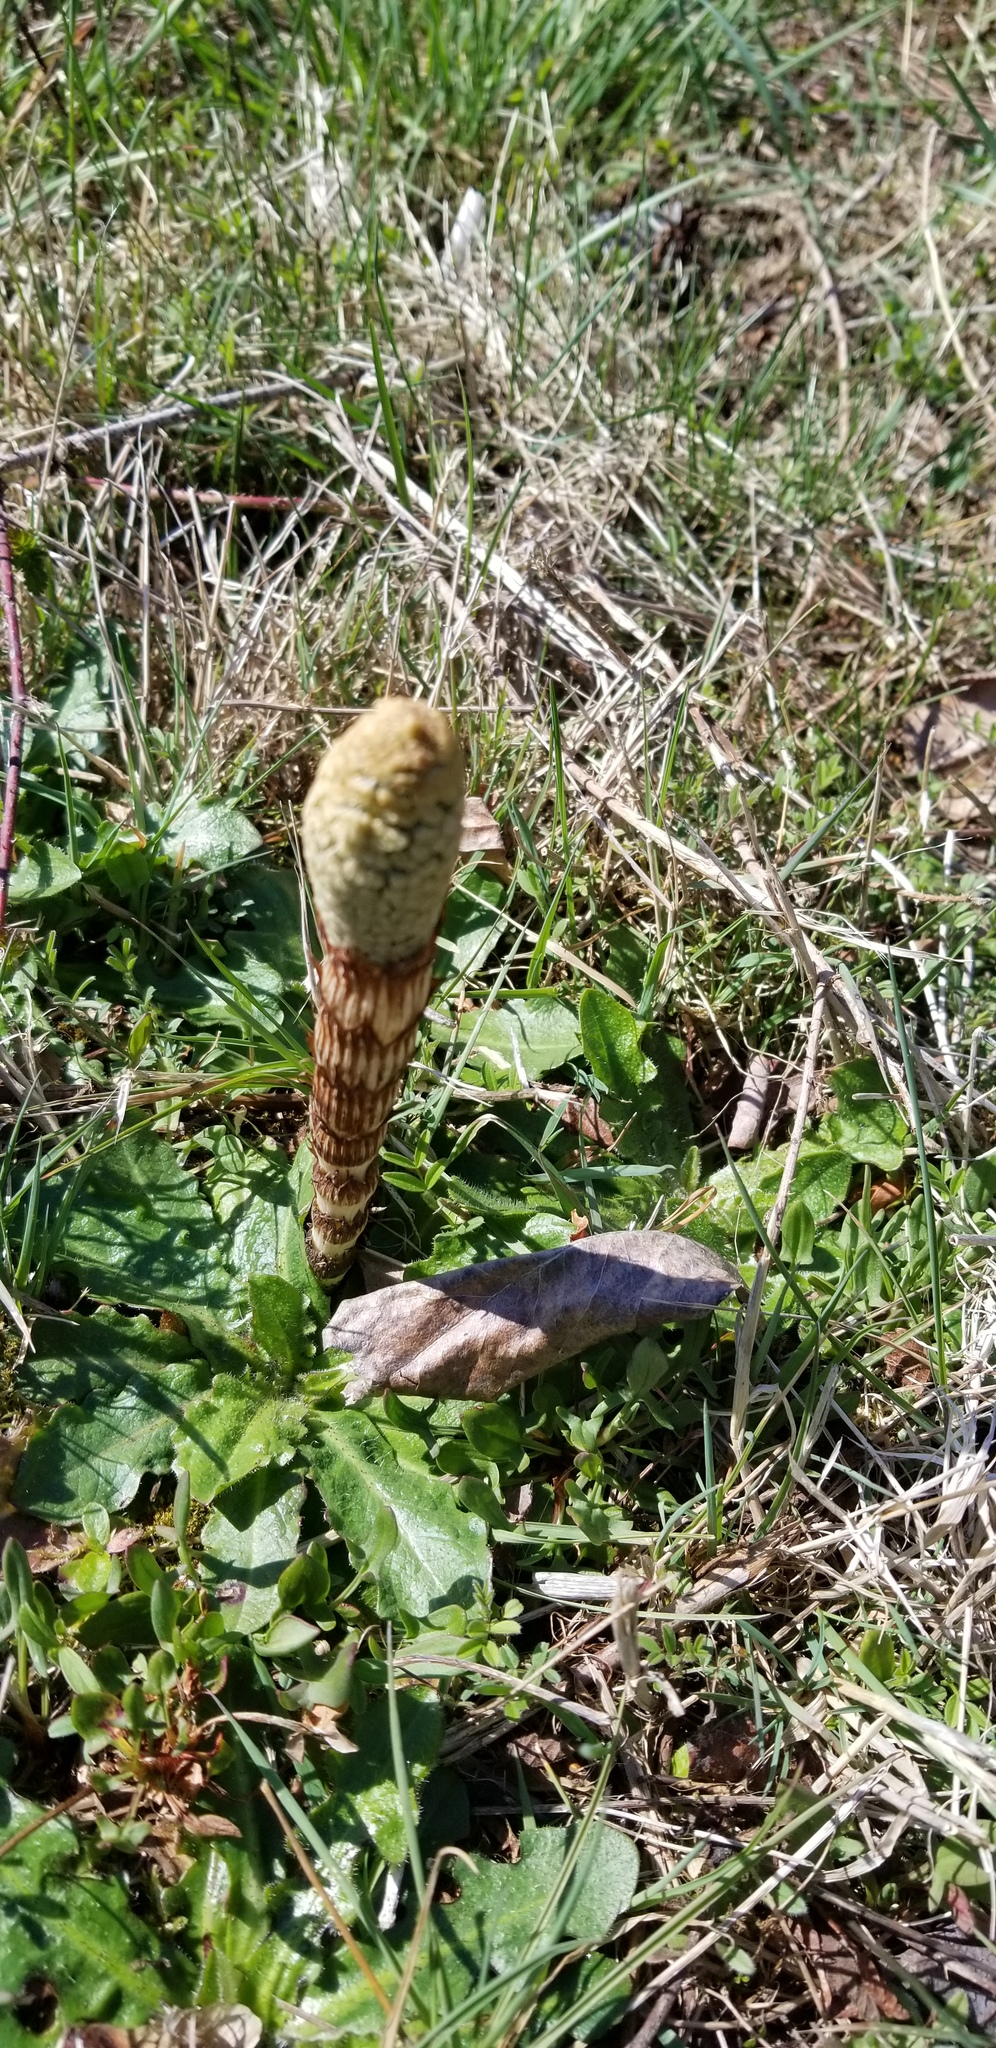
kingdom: Plantae
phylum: Tracheophyta
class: Polypodiopsida
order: Equisetales
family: Equisetaceae
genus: Equisetum
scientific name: Equisetum braunii
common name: Braun's horsetail
